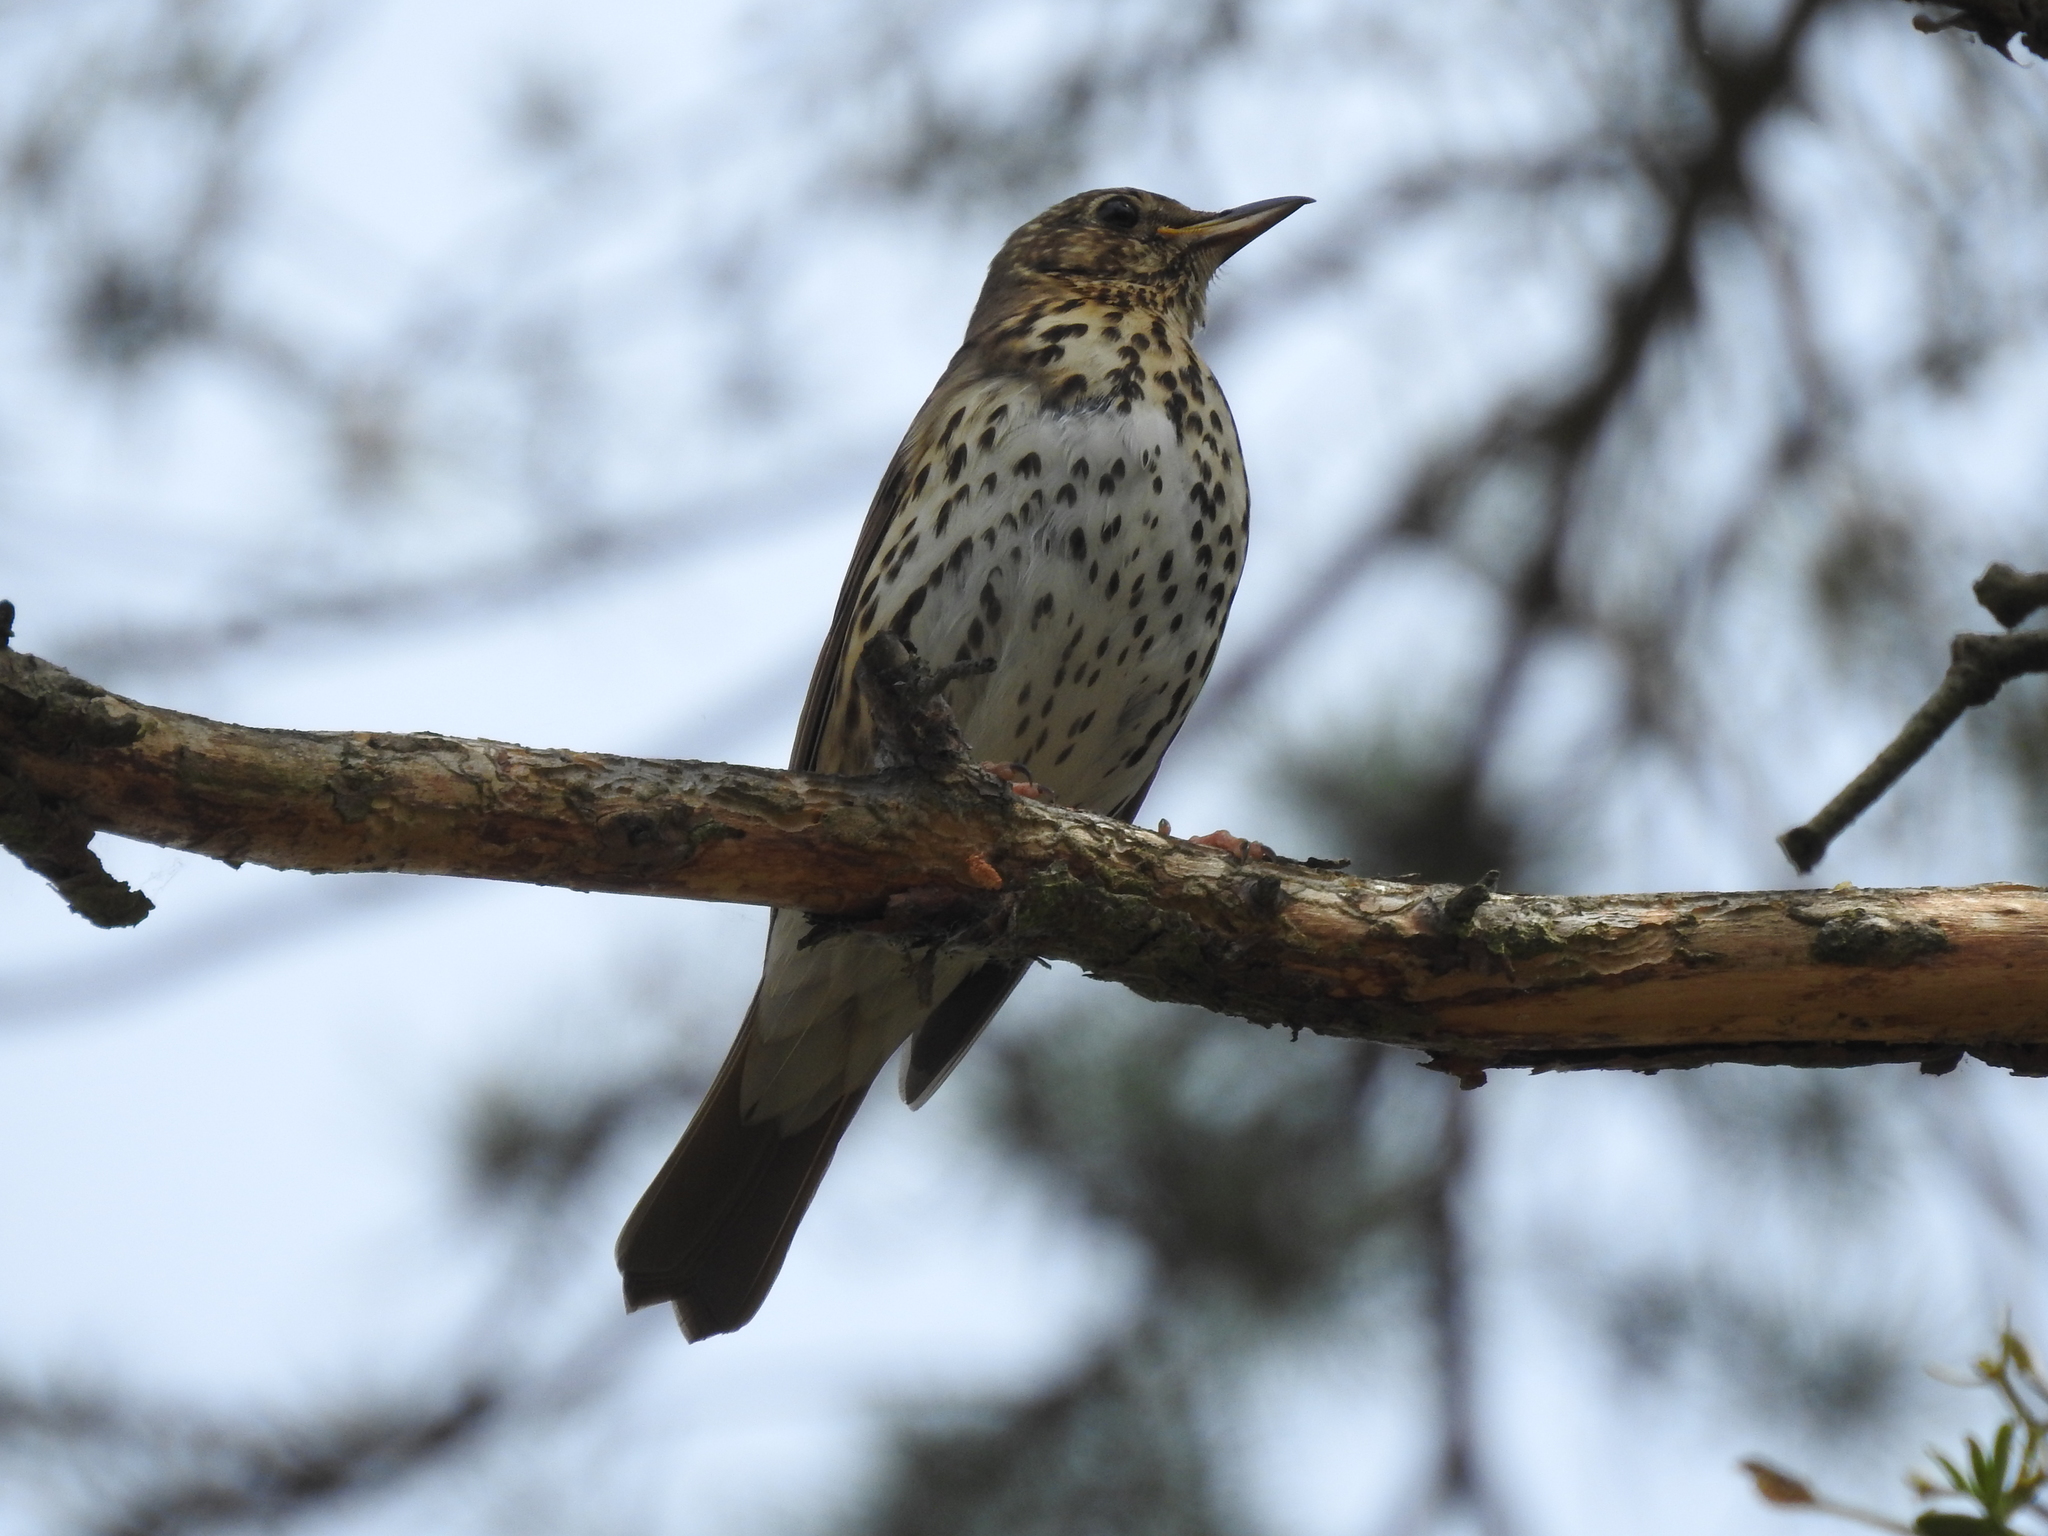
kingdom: Animalia
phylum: Chordata
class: Aves
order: Passeriformes
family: Turdidae
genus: Turdus
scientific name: Turdus philomelos
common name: Song thrush
